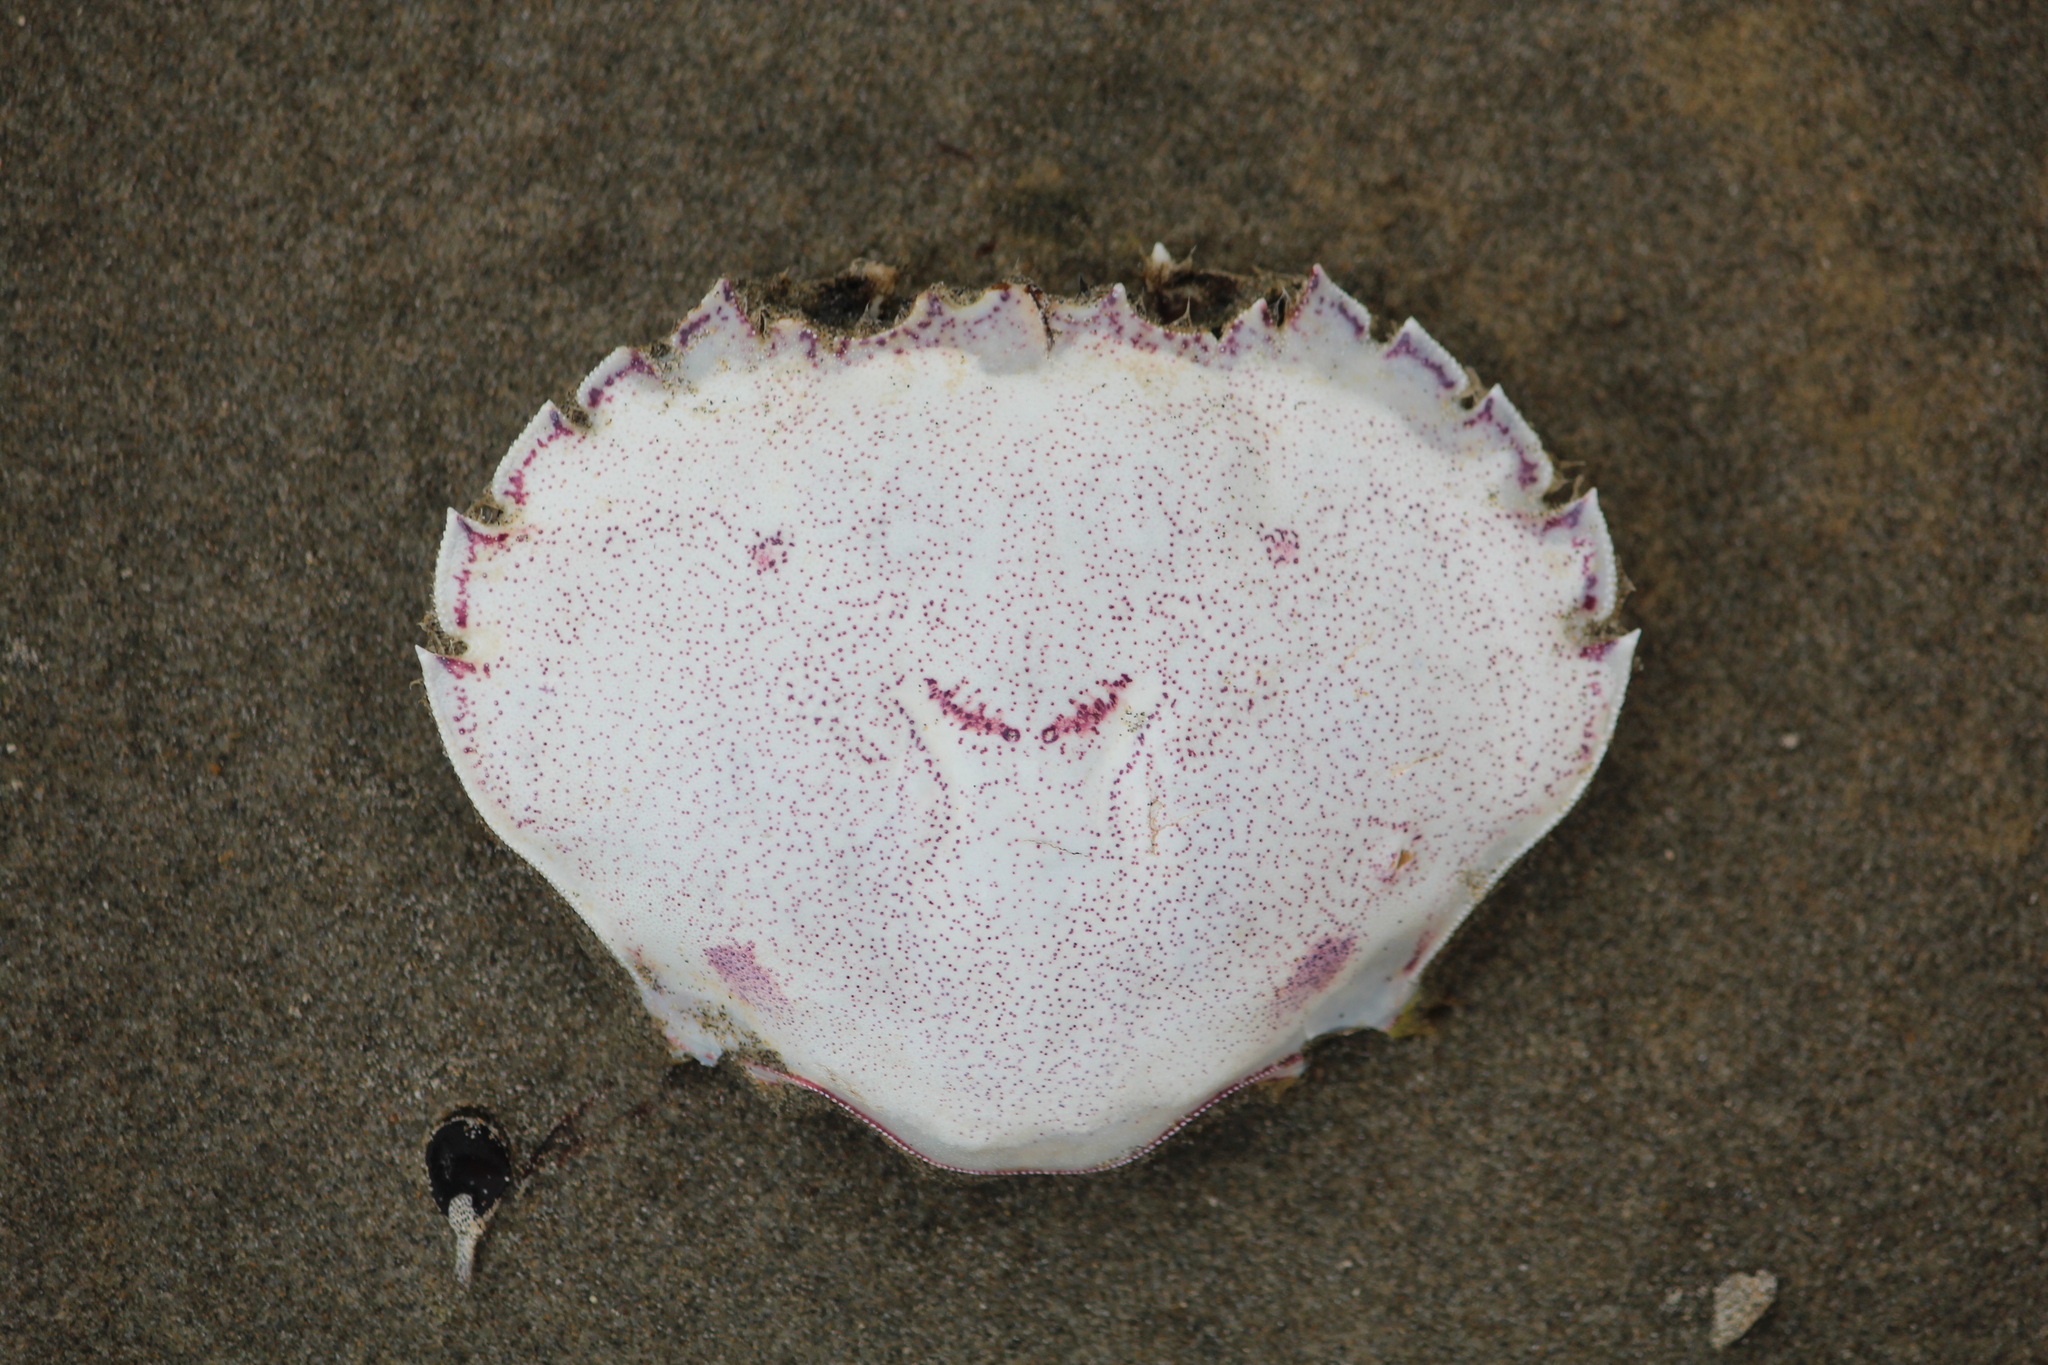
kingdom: Animalia
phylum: Arthropoda
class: Malacostraca
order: Decapoda
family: Ovalipidae
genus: Ovalipes
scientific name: Ovalipes catharus
